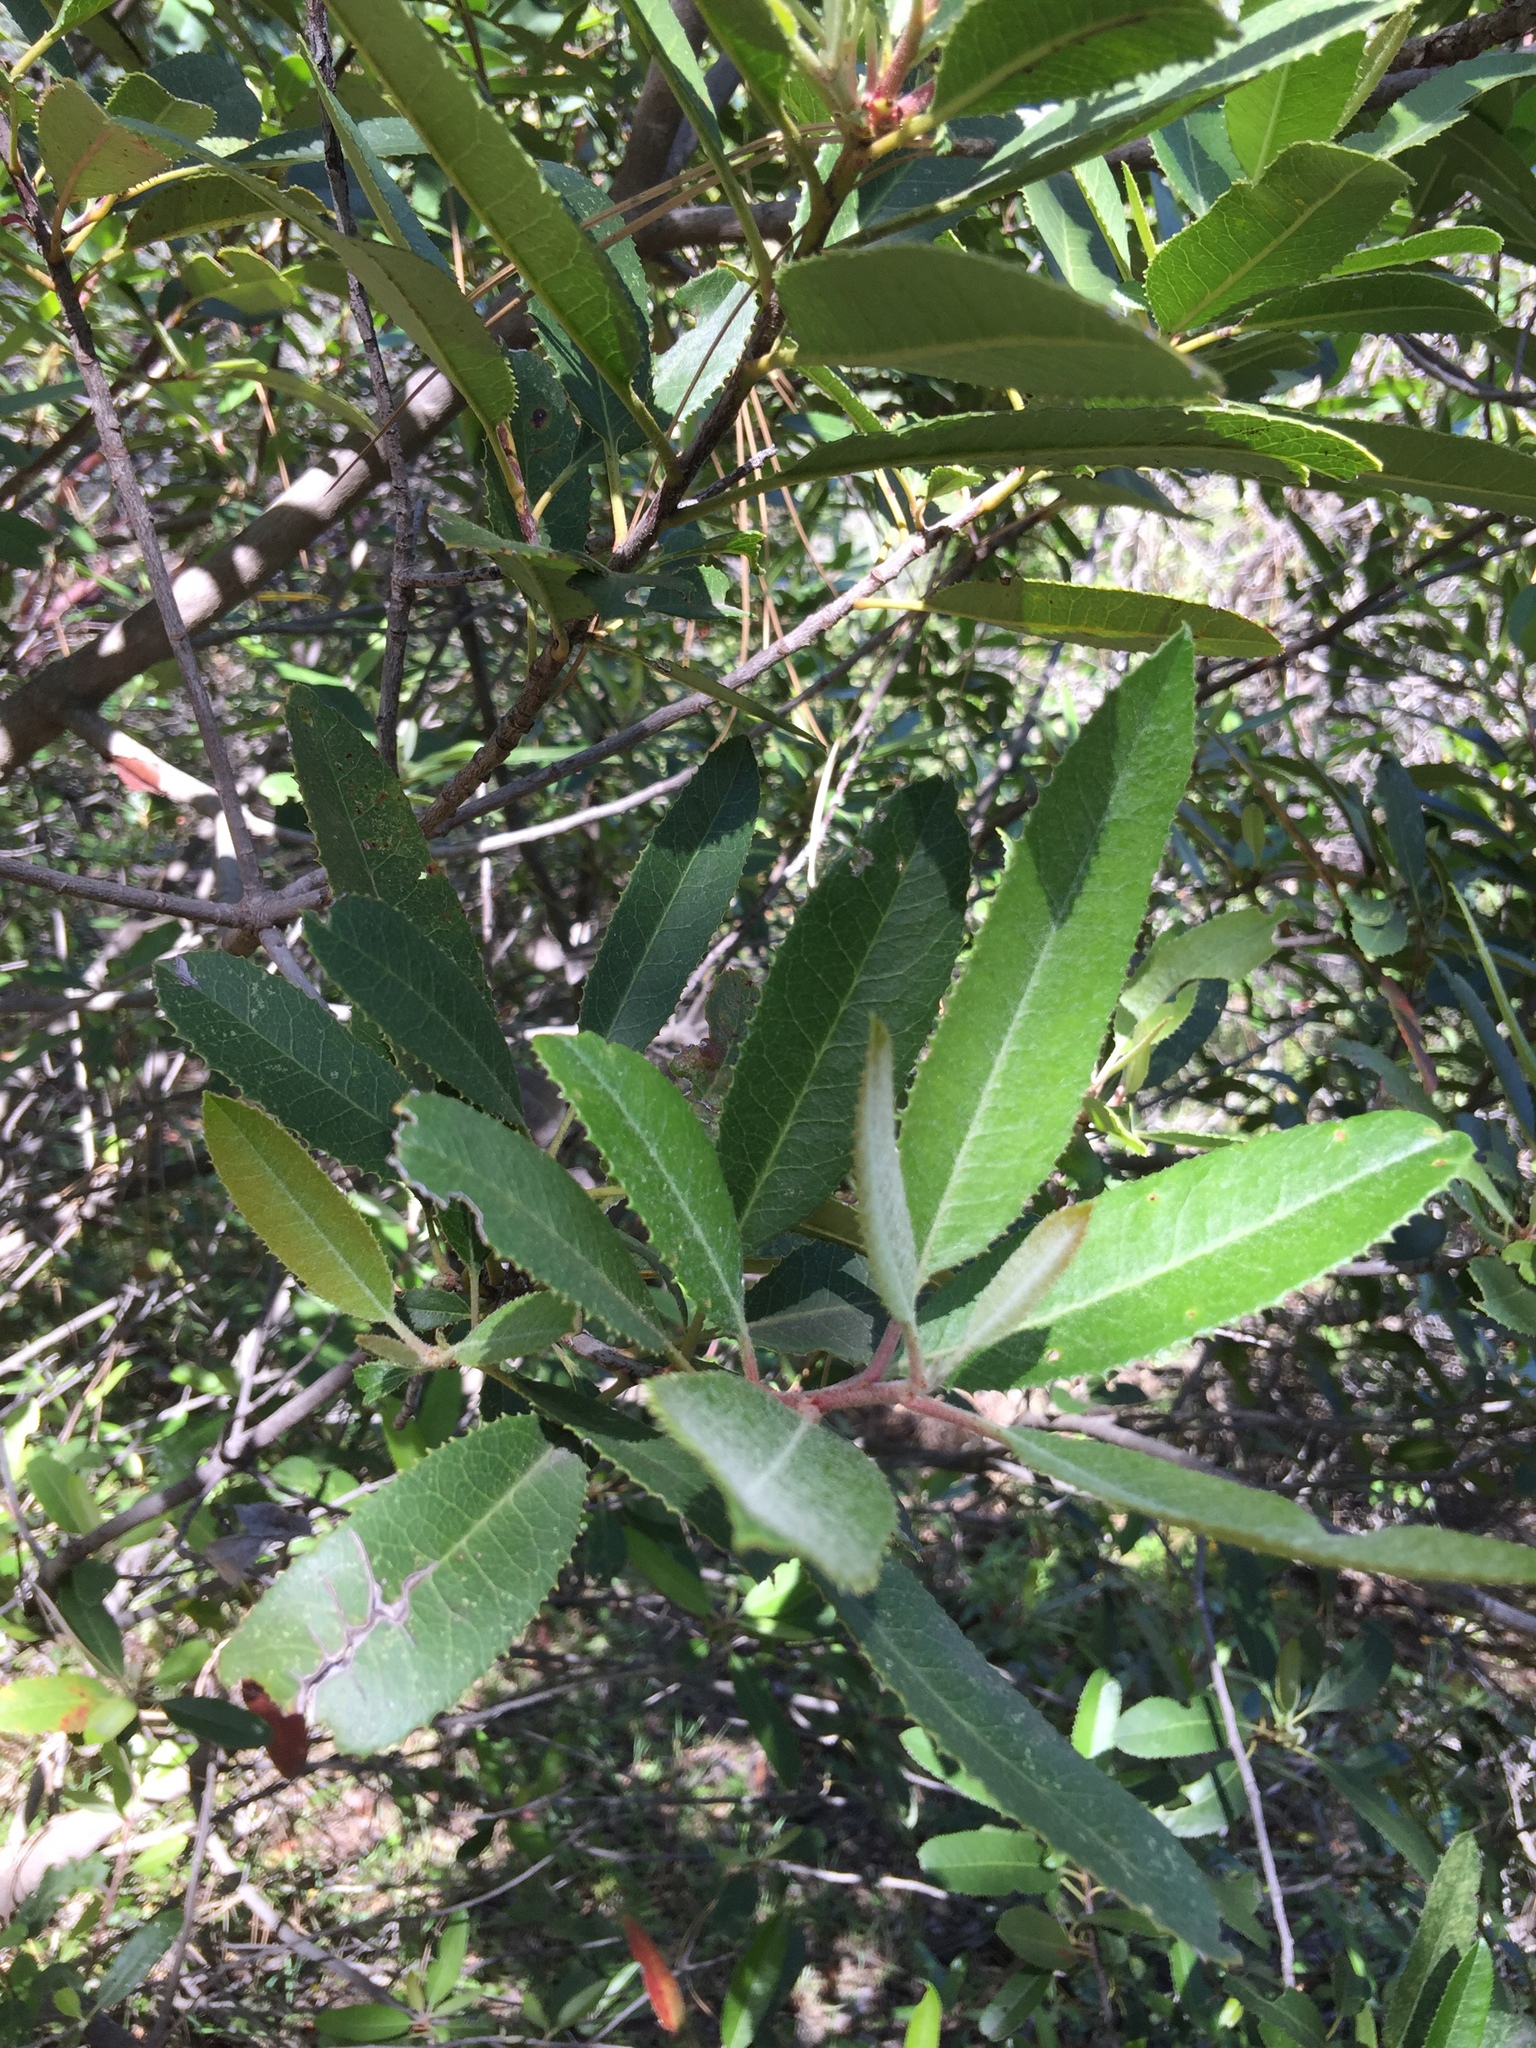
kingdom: Plantae
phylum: Tracheophyta
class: Magnoliopsida
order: Rosales
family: Rosaceae
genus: Heteromeles
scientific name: Heteromeles arbutifolia
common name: California-holly
